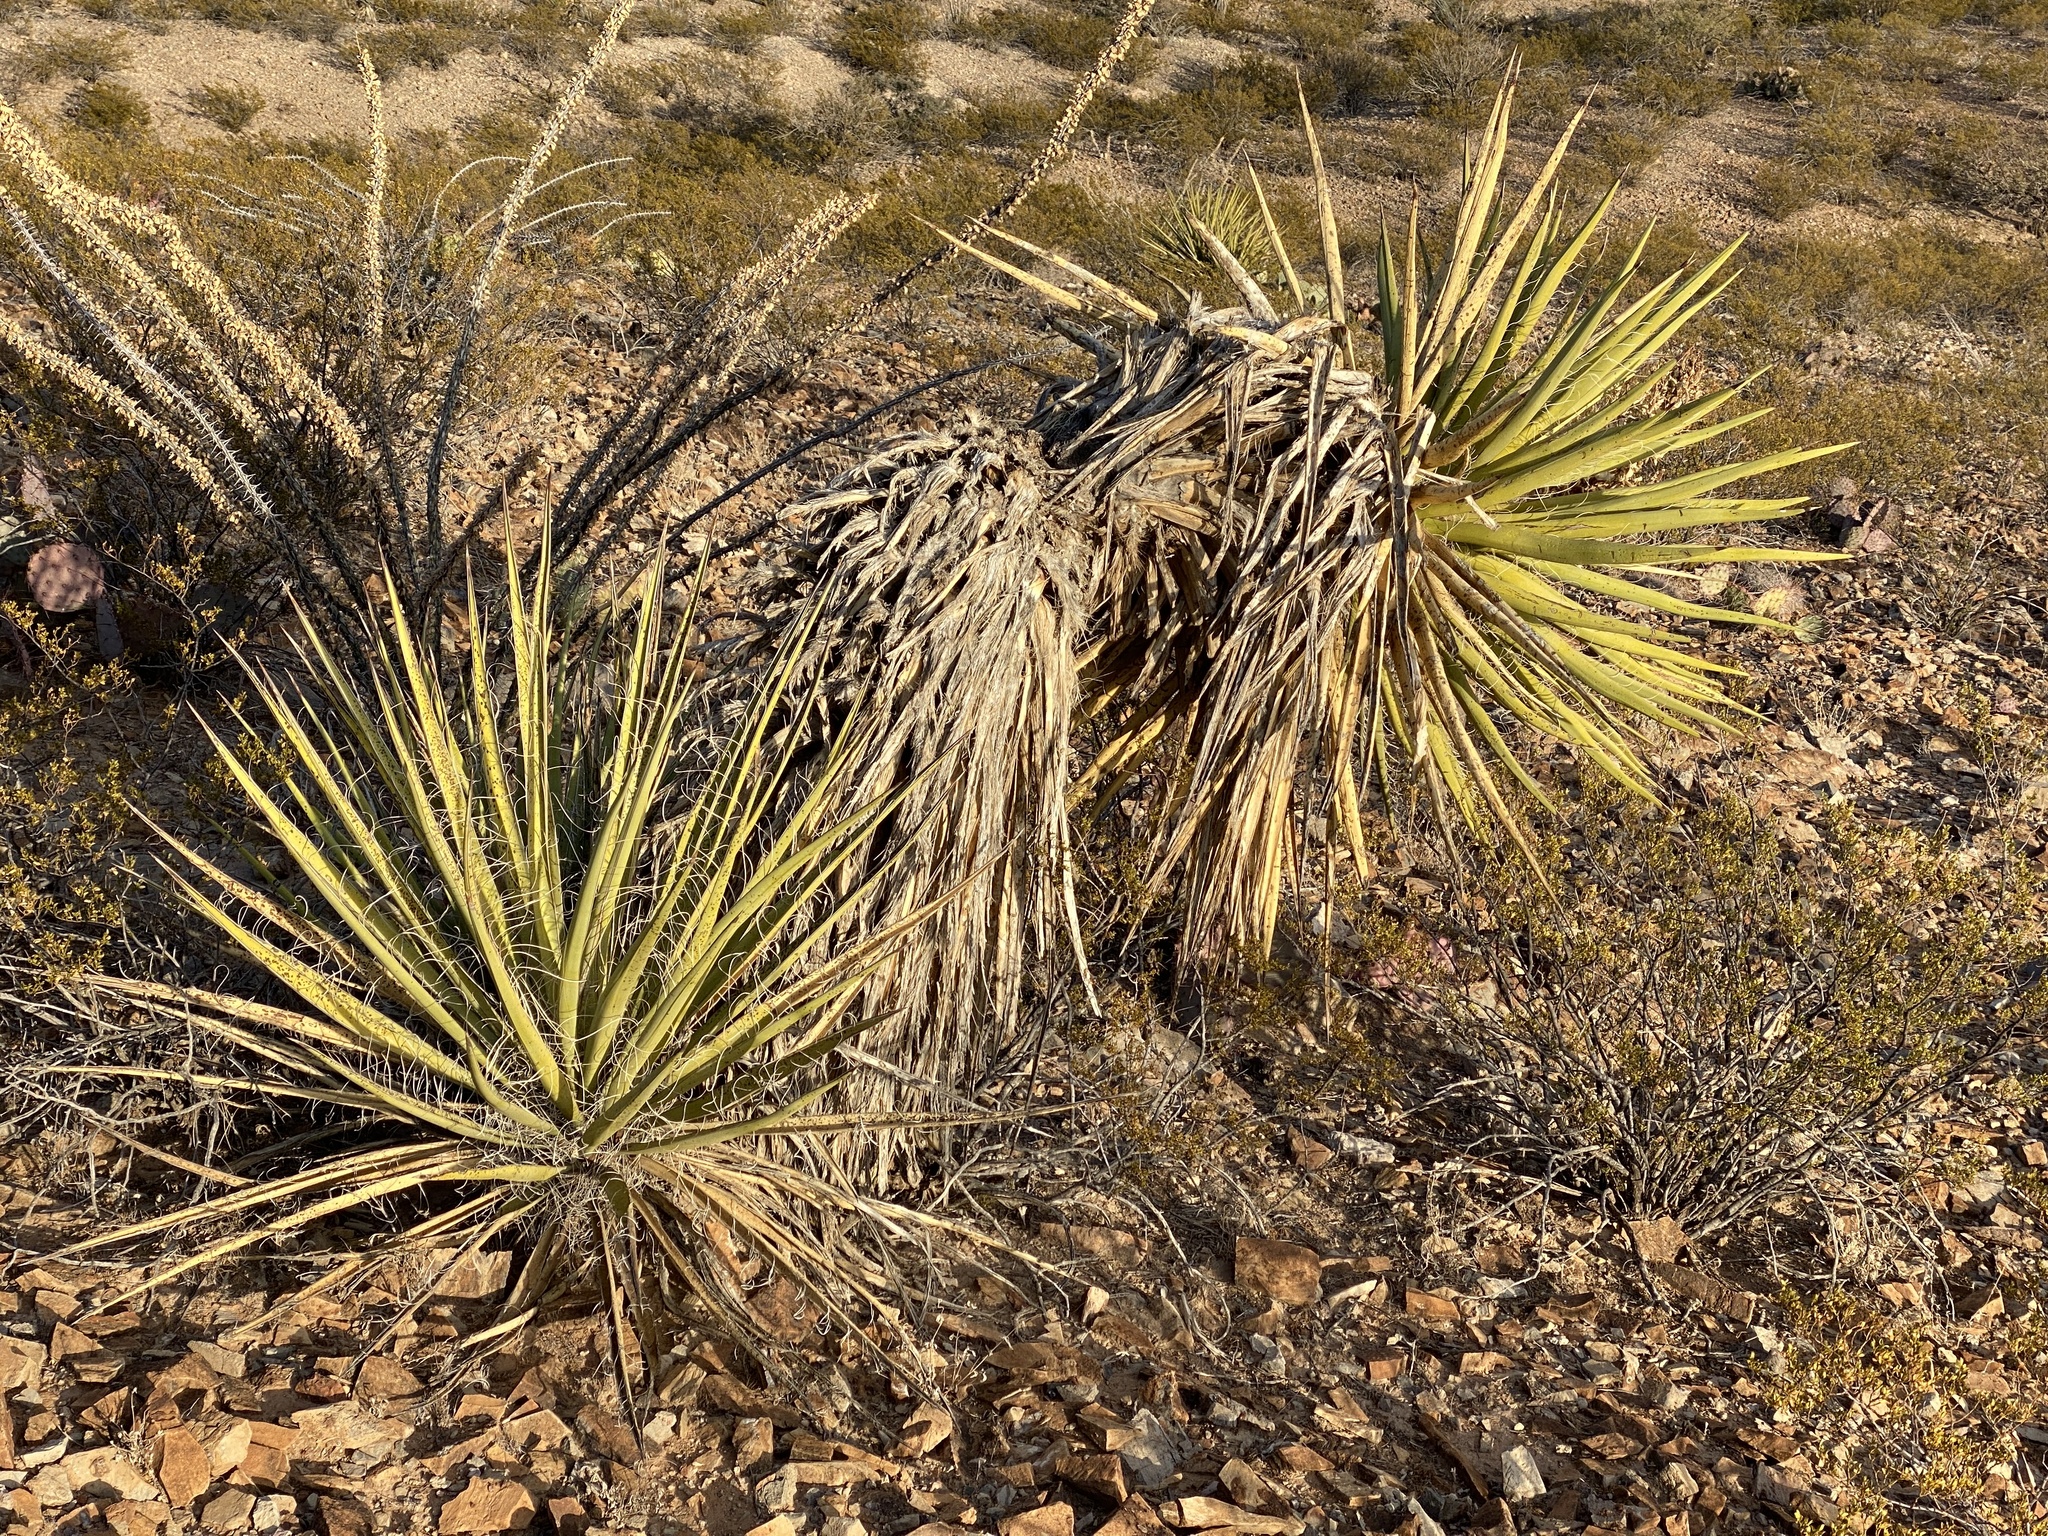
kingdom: Plantae
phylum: Tracheophyta
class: Liliopsida
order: Asparagales
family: Asparagaceae
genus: Yucca
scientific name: Yucca treculiana
